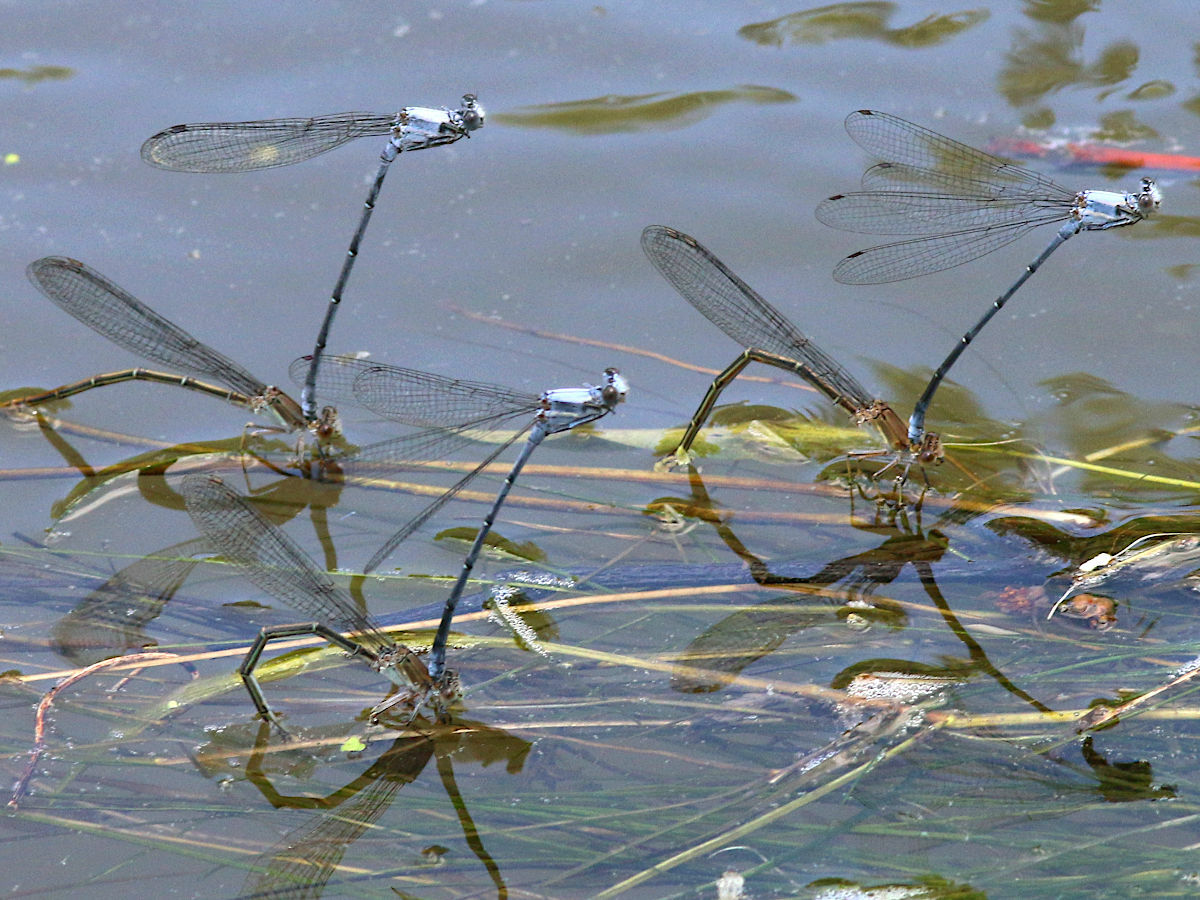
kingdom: Animalia
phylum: Arthropoda
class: Insecta
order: Odonata
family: Coenagrionidae
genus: Argia
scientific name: Argia moesta
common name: Powdered dancer
